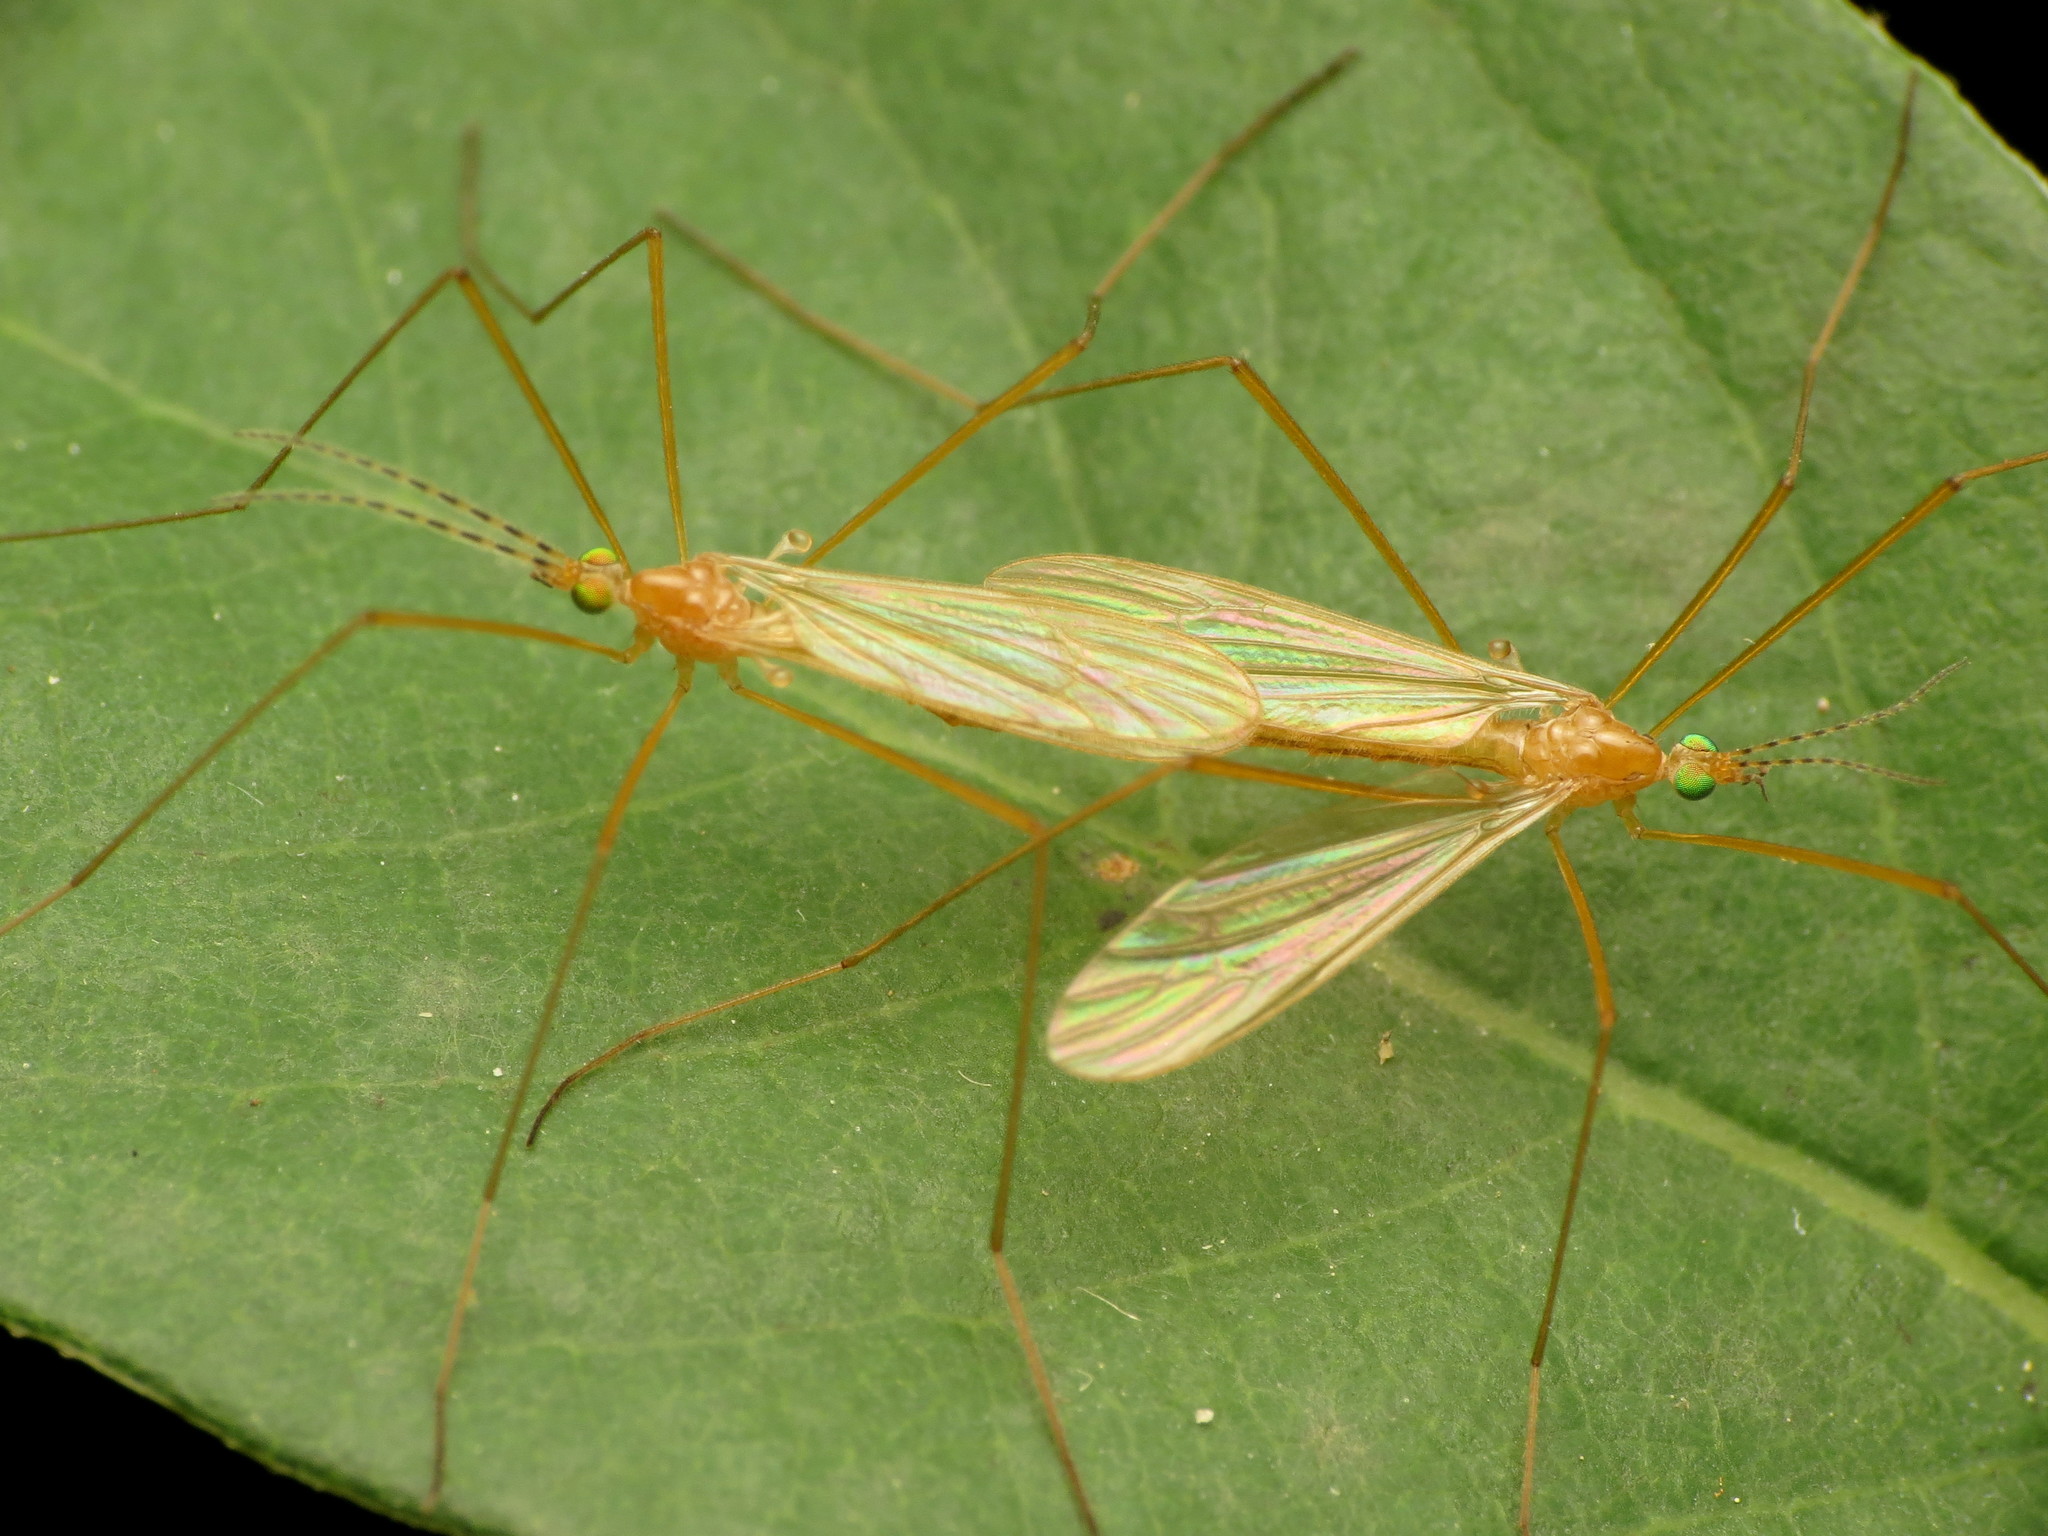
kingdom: Animalia
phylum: Arthropoda
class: Insecta
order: Diptera
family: Limoniidae
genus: Atarba
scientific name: Atarba picticornis
